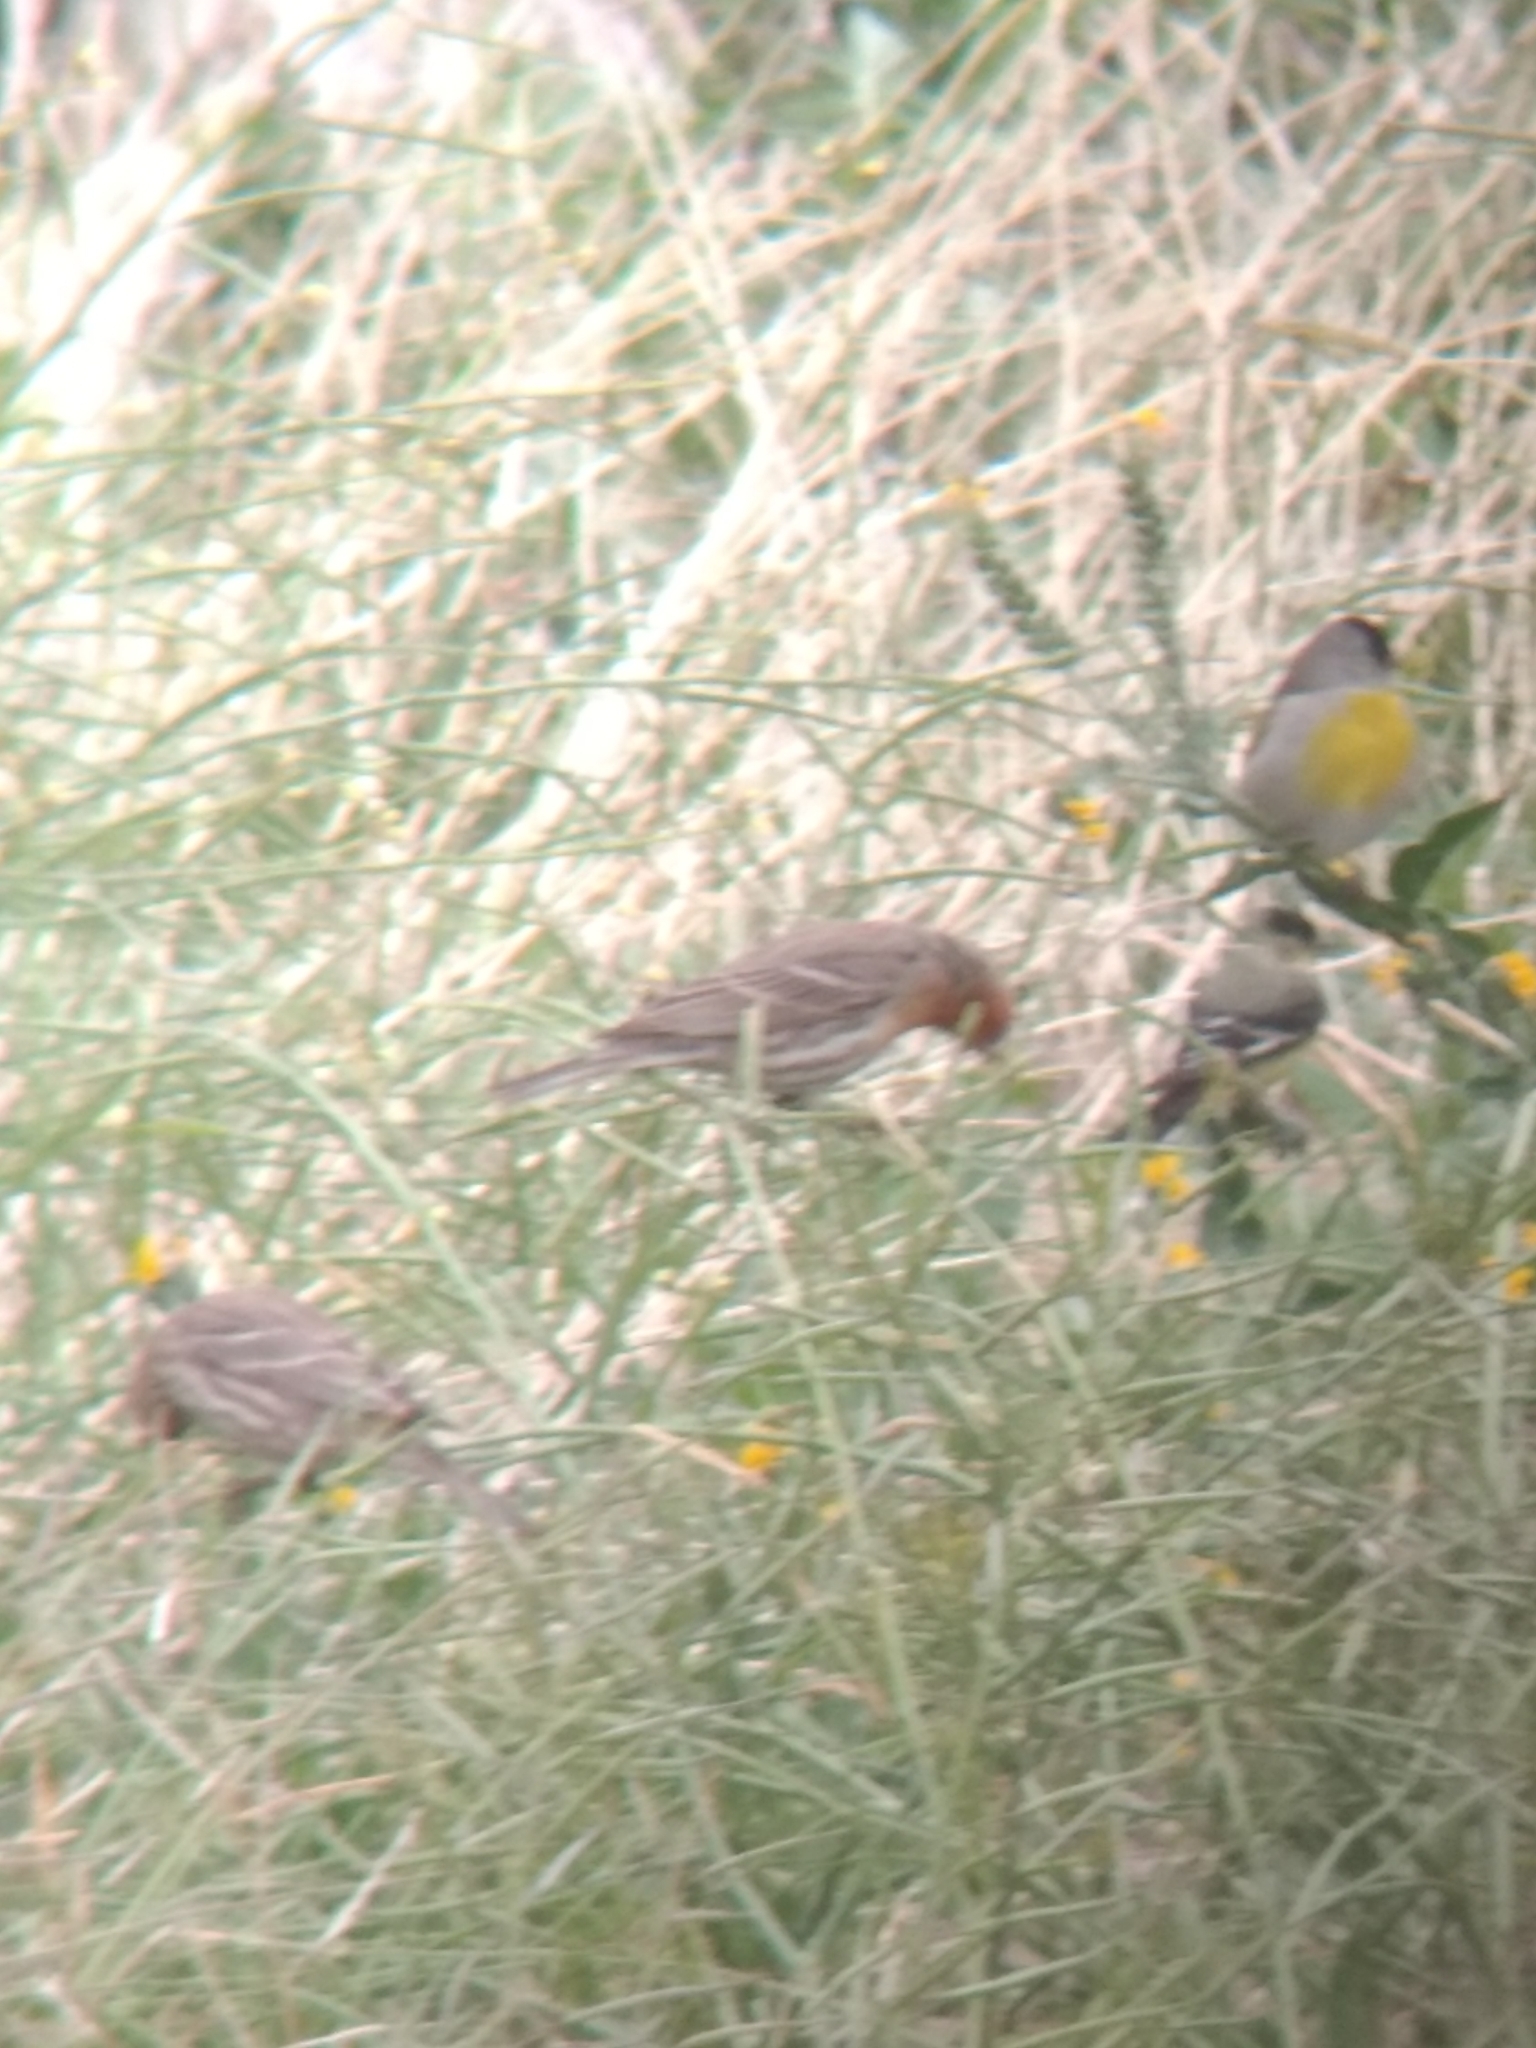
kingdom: Animalia
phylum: Chordata
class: Aves
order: Passeriformes
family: Fringillidae
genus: Spinus
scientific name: Spinus lawrencei
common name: Lawrence's goldfinch
